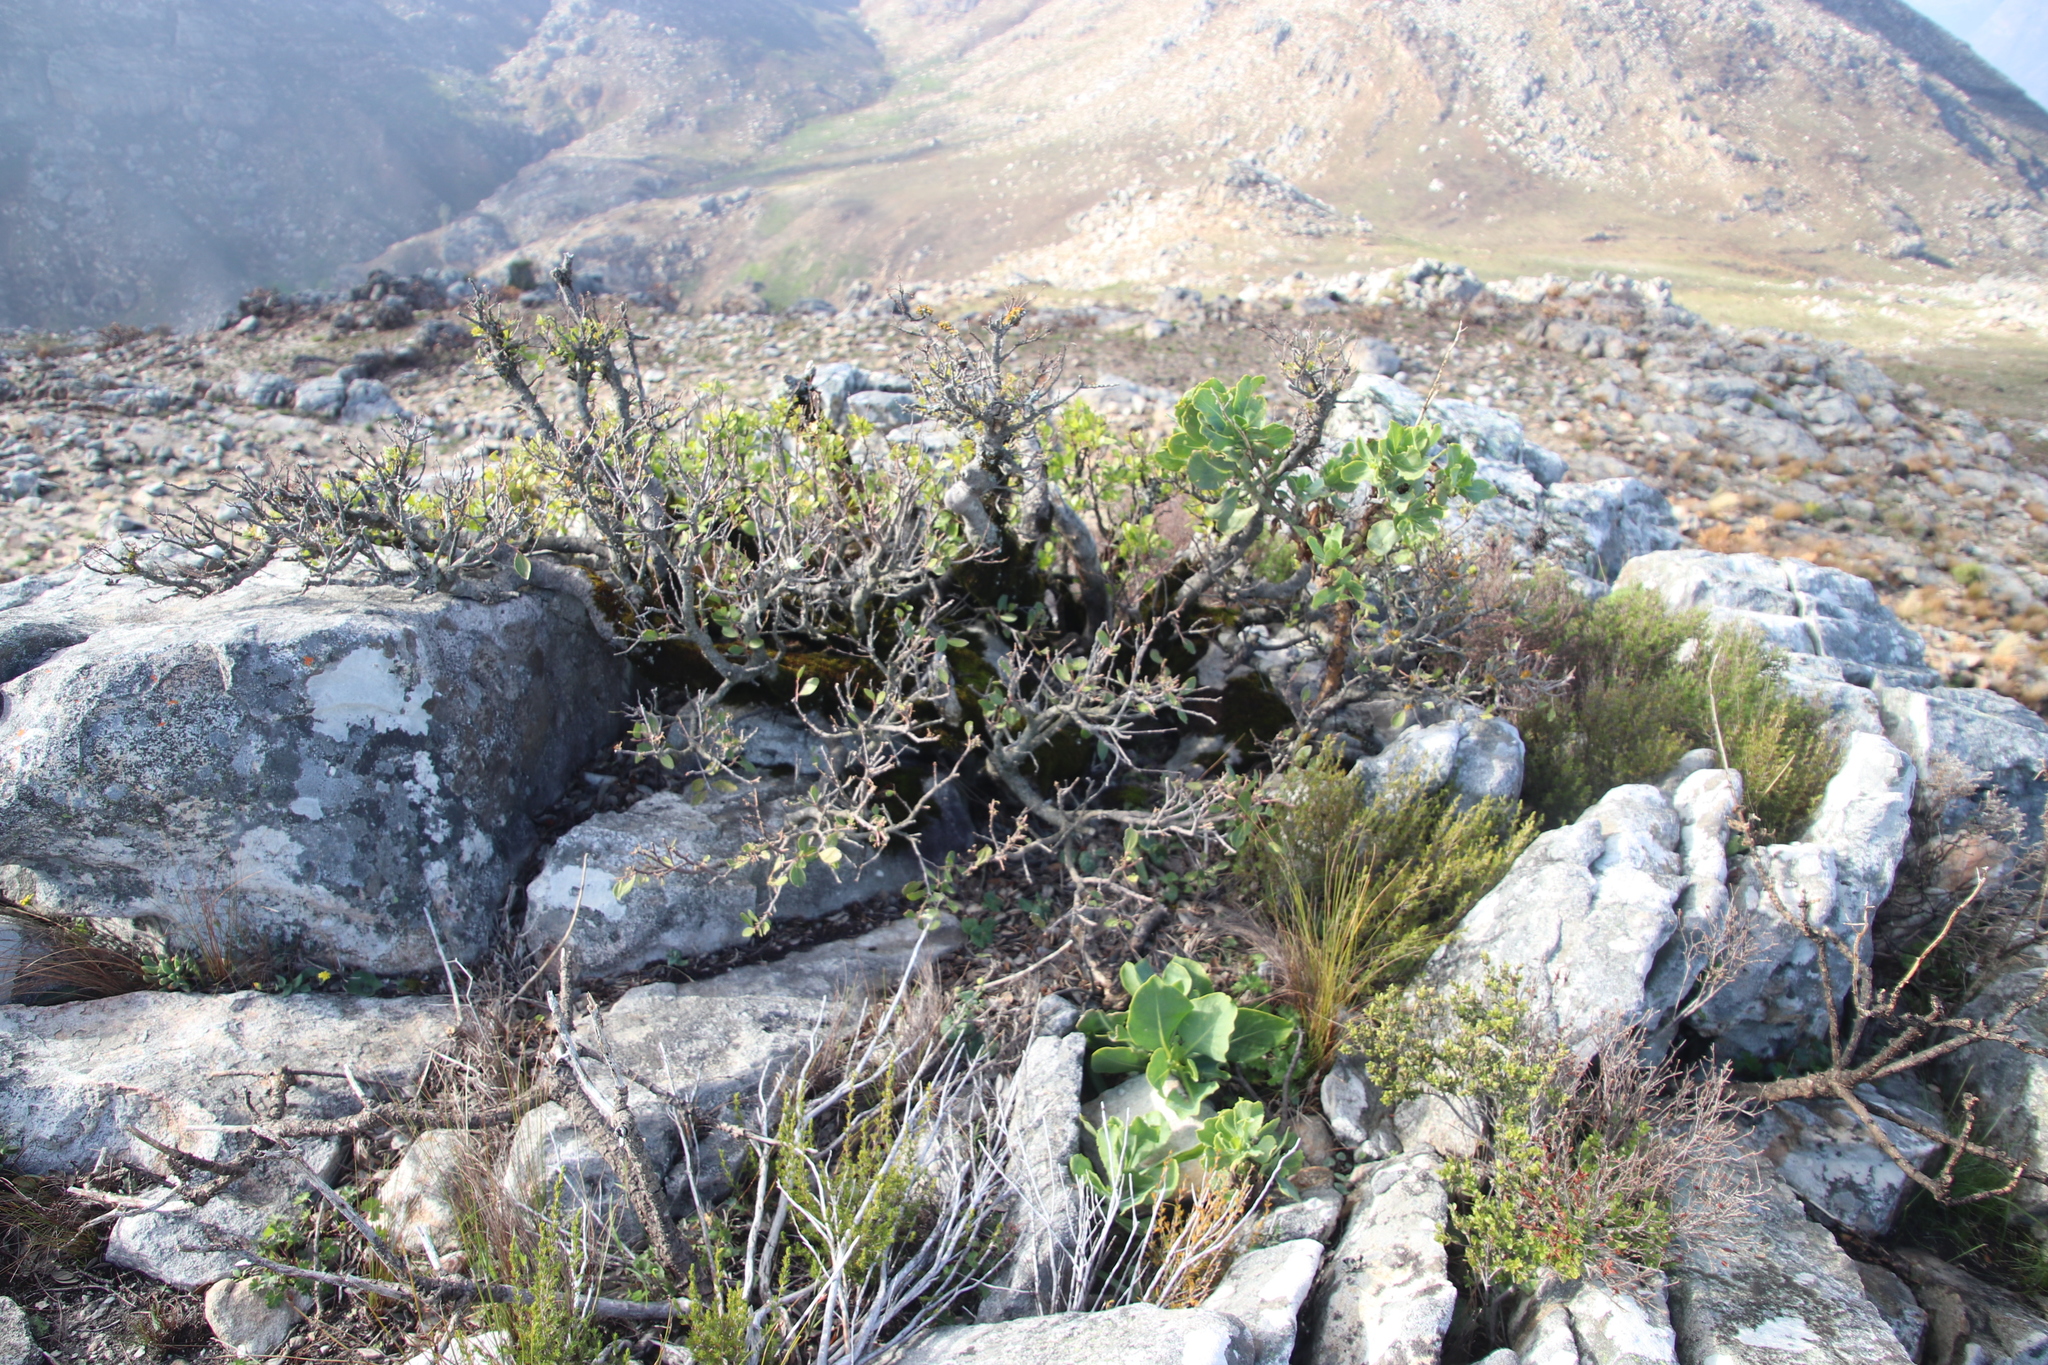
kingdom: Plantae
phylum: Tracheophyta
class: Magnoliopsida
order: Celastrales
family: Celastraceae
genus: Gymnosporia
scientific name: Gymnosporia laurina
